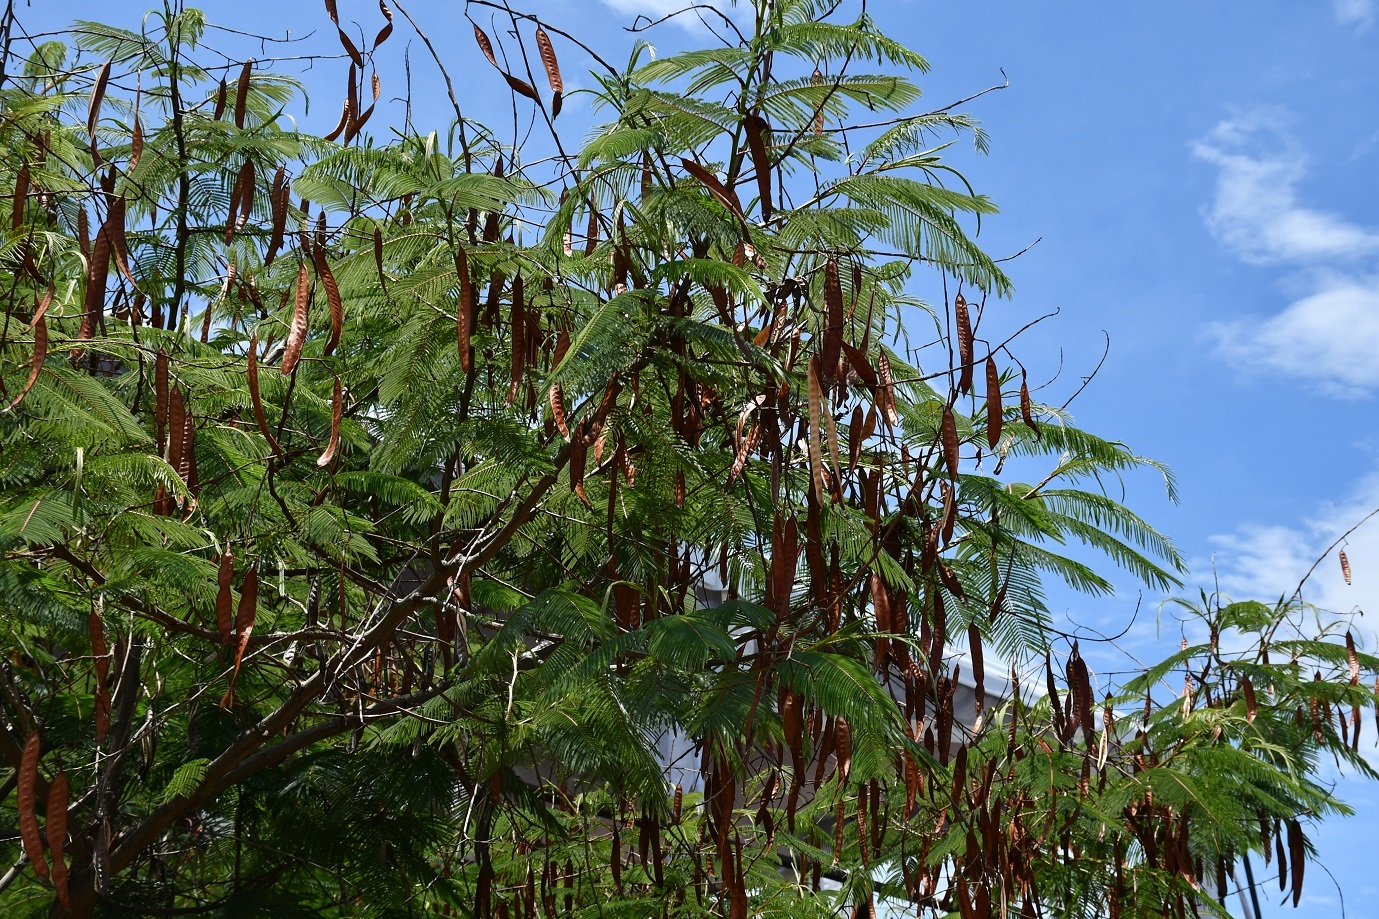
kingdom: Plantae
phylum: Tracheophyta
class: Magnoliopsida
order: Fabales
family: Fabaceae
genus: Leucaena
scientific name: Leucaena esculenta
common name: Guaje
